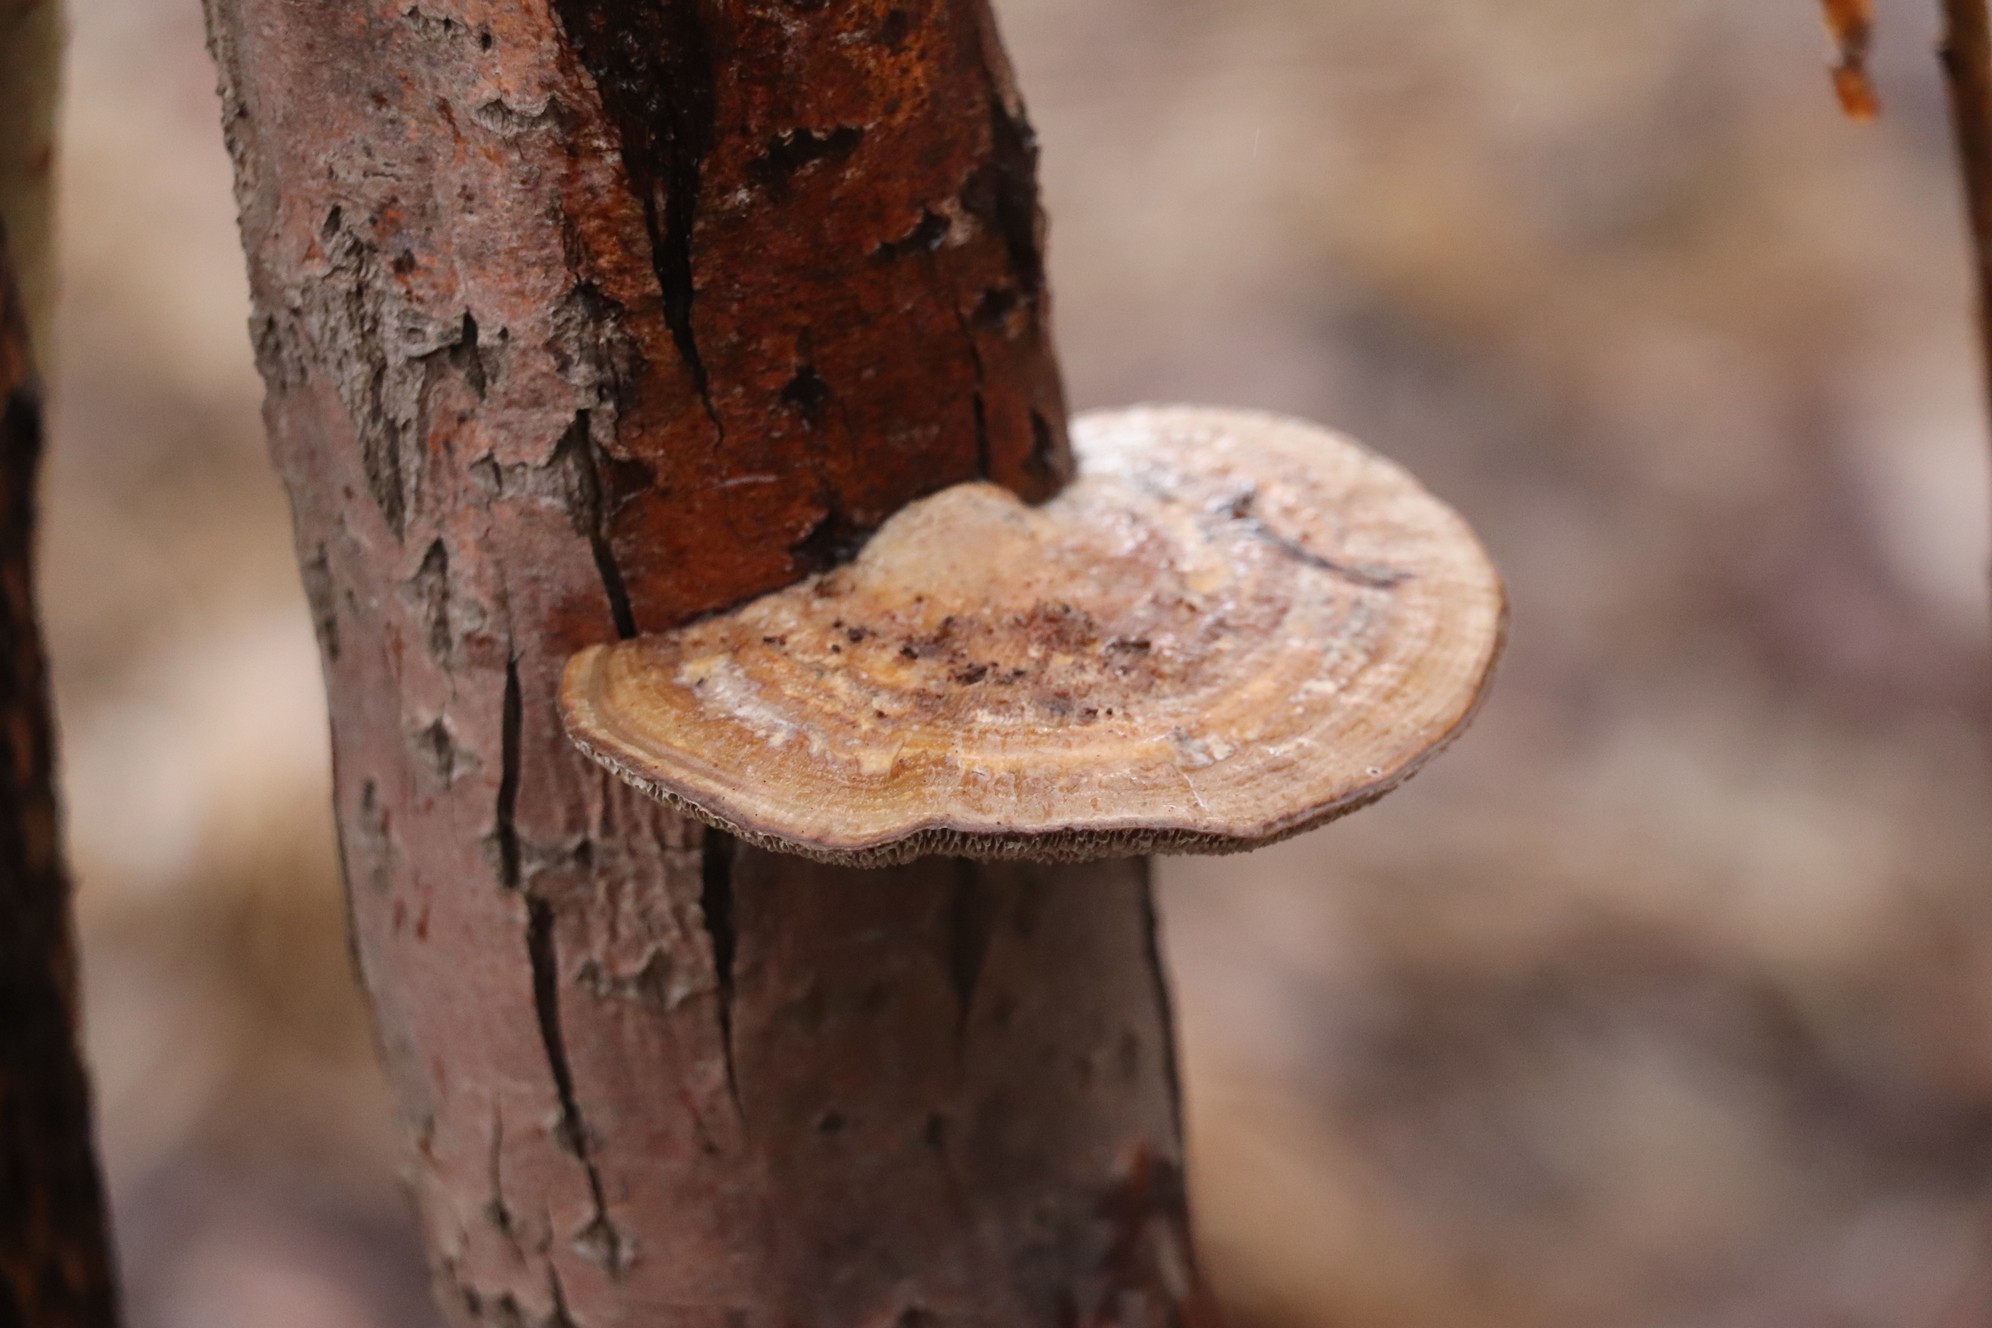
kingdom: Fungi
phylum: Basidiomycota
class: Agaricomycetes
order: Polyporales
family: Polyporaceae
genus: Daedaleopsis
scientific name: Daedaleopsis confragosa
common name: Blushing bracket
